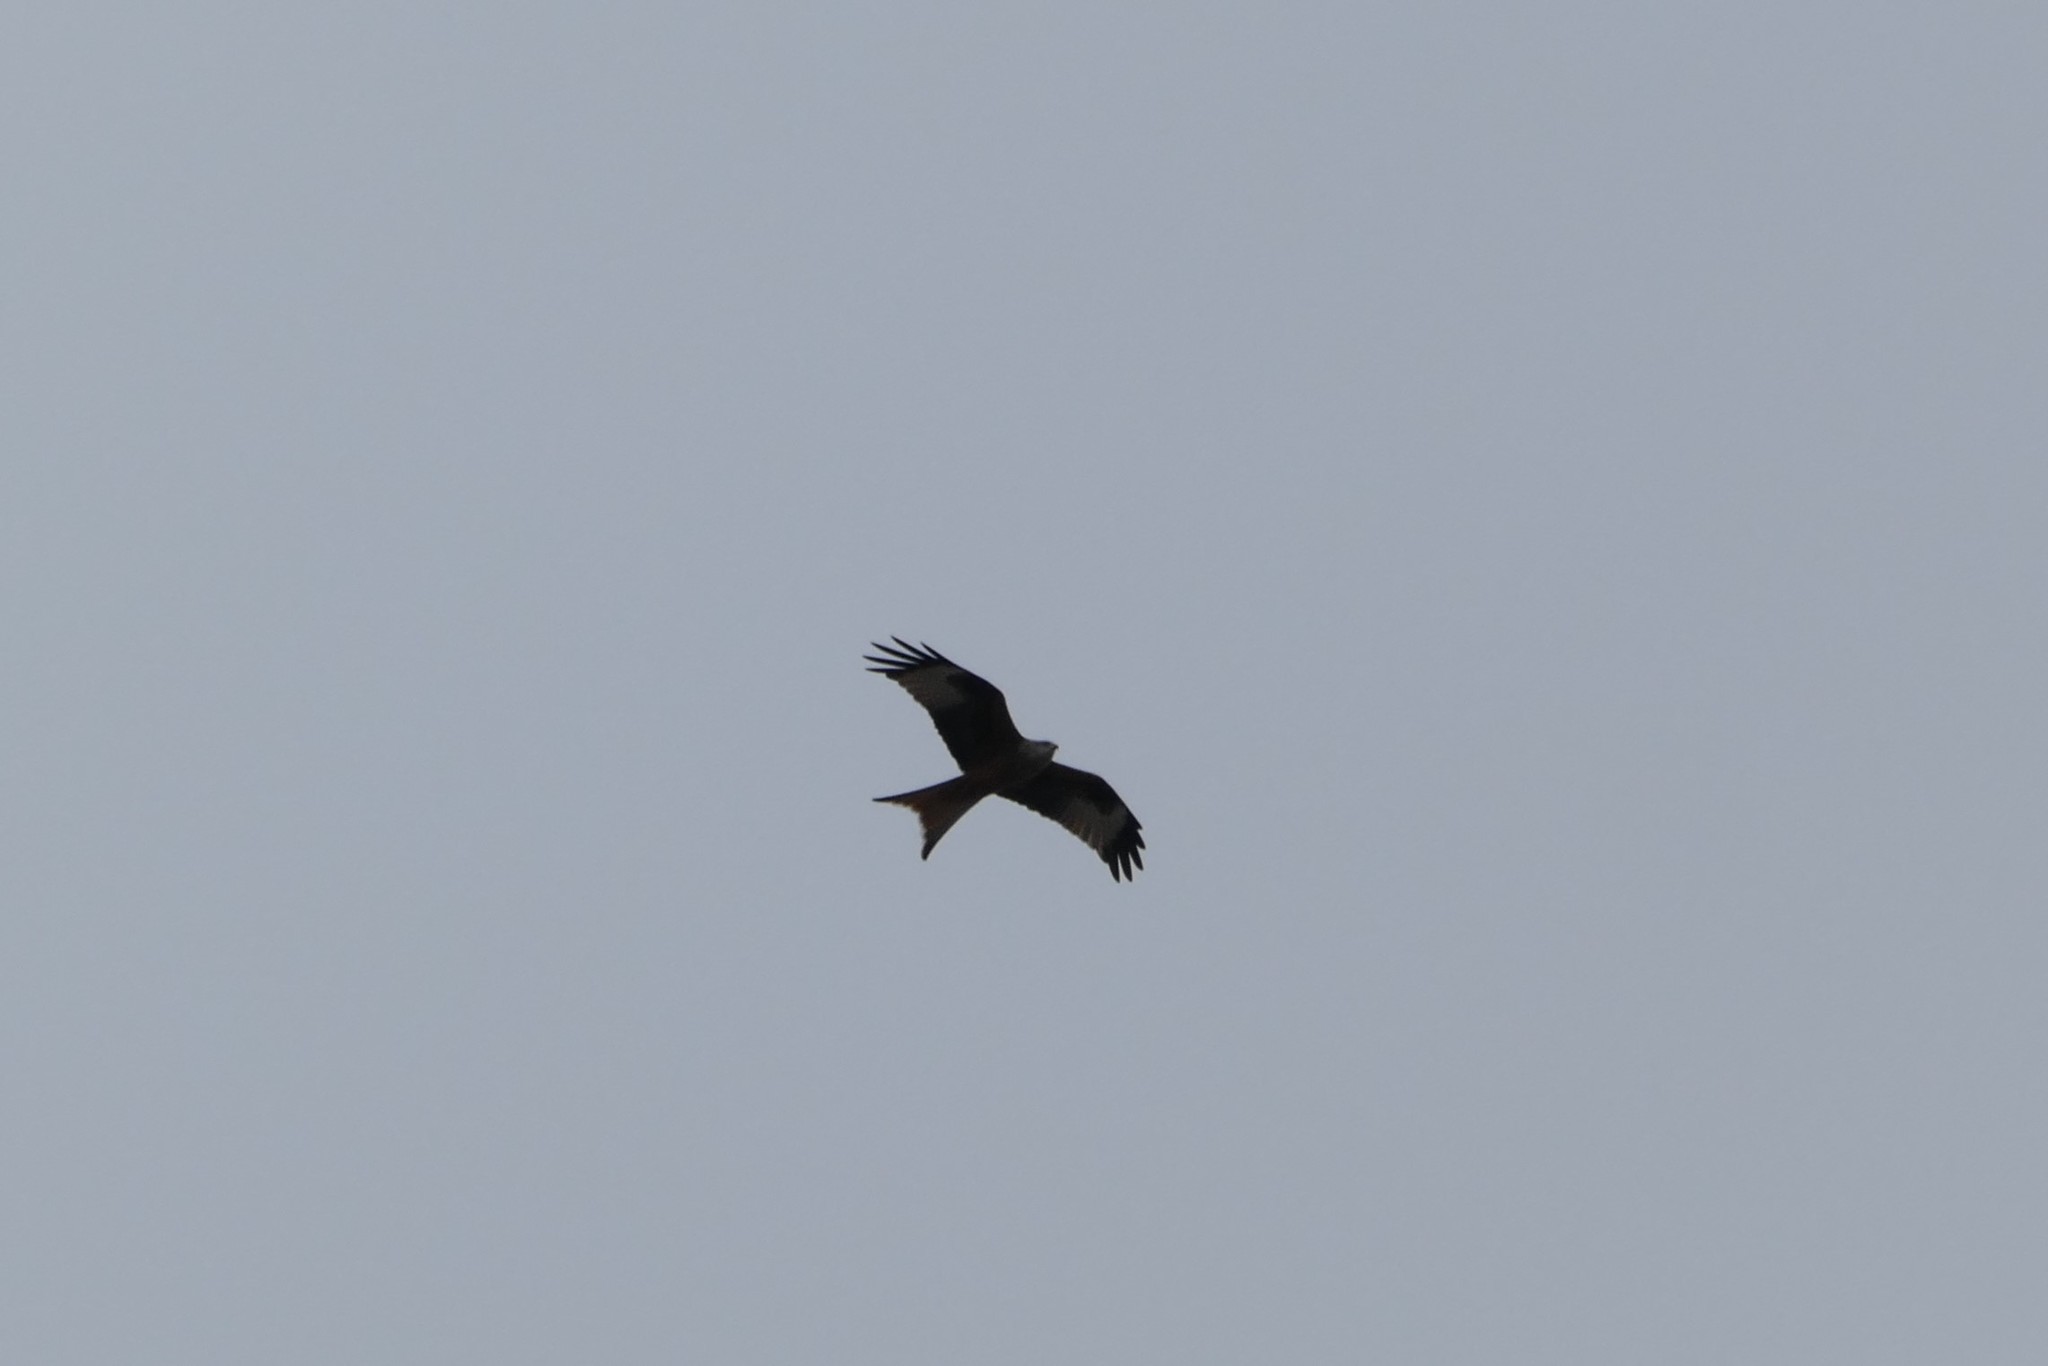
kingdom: Animalia
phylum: Chordata
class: Aves
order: Accipitriformes
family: Accipitridae
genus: Milvus
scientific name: Milvus milvus
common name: Red kite
